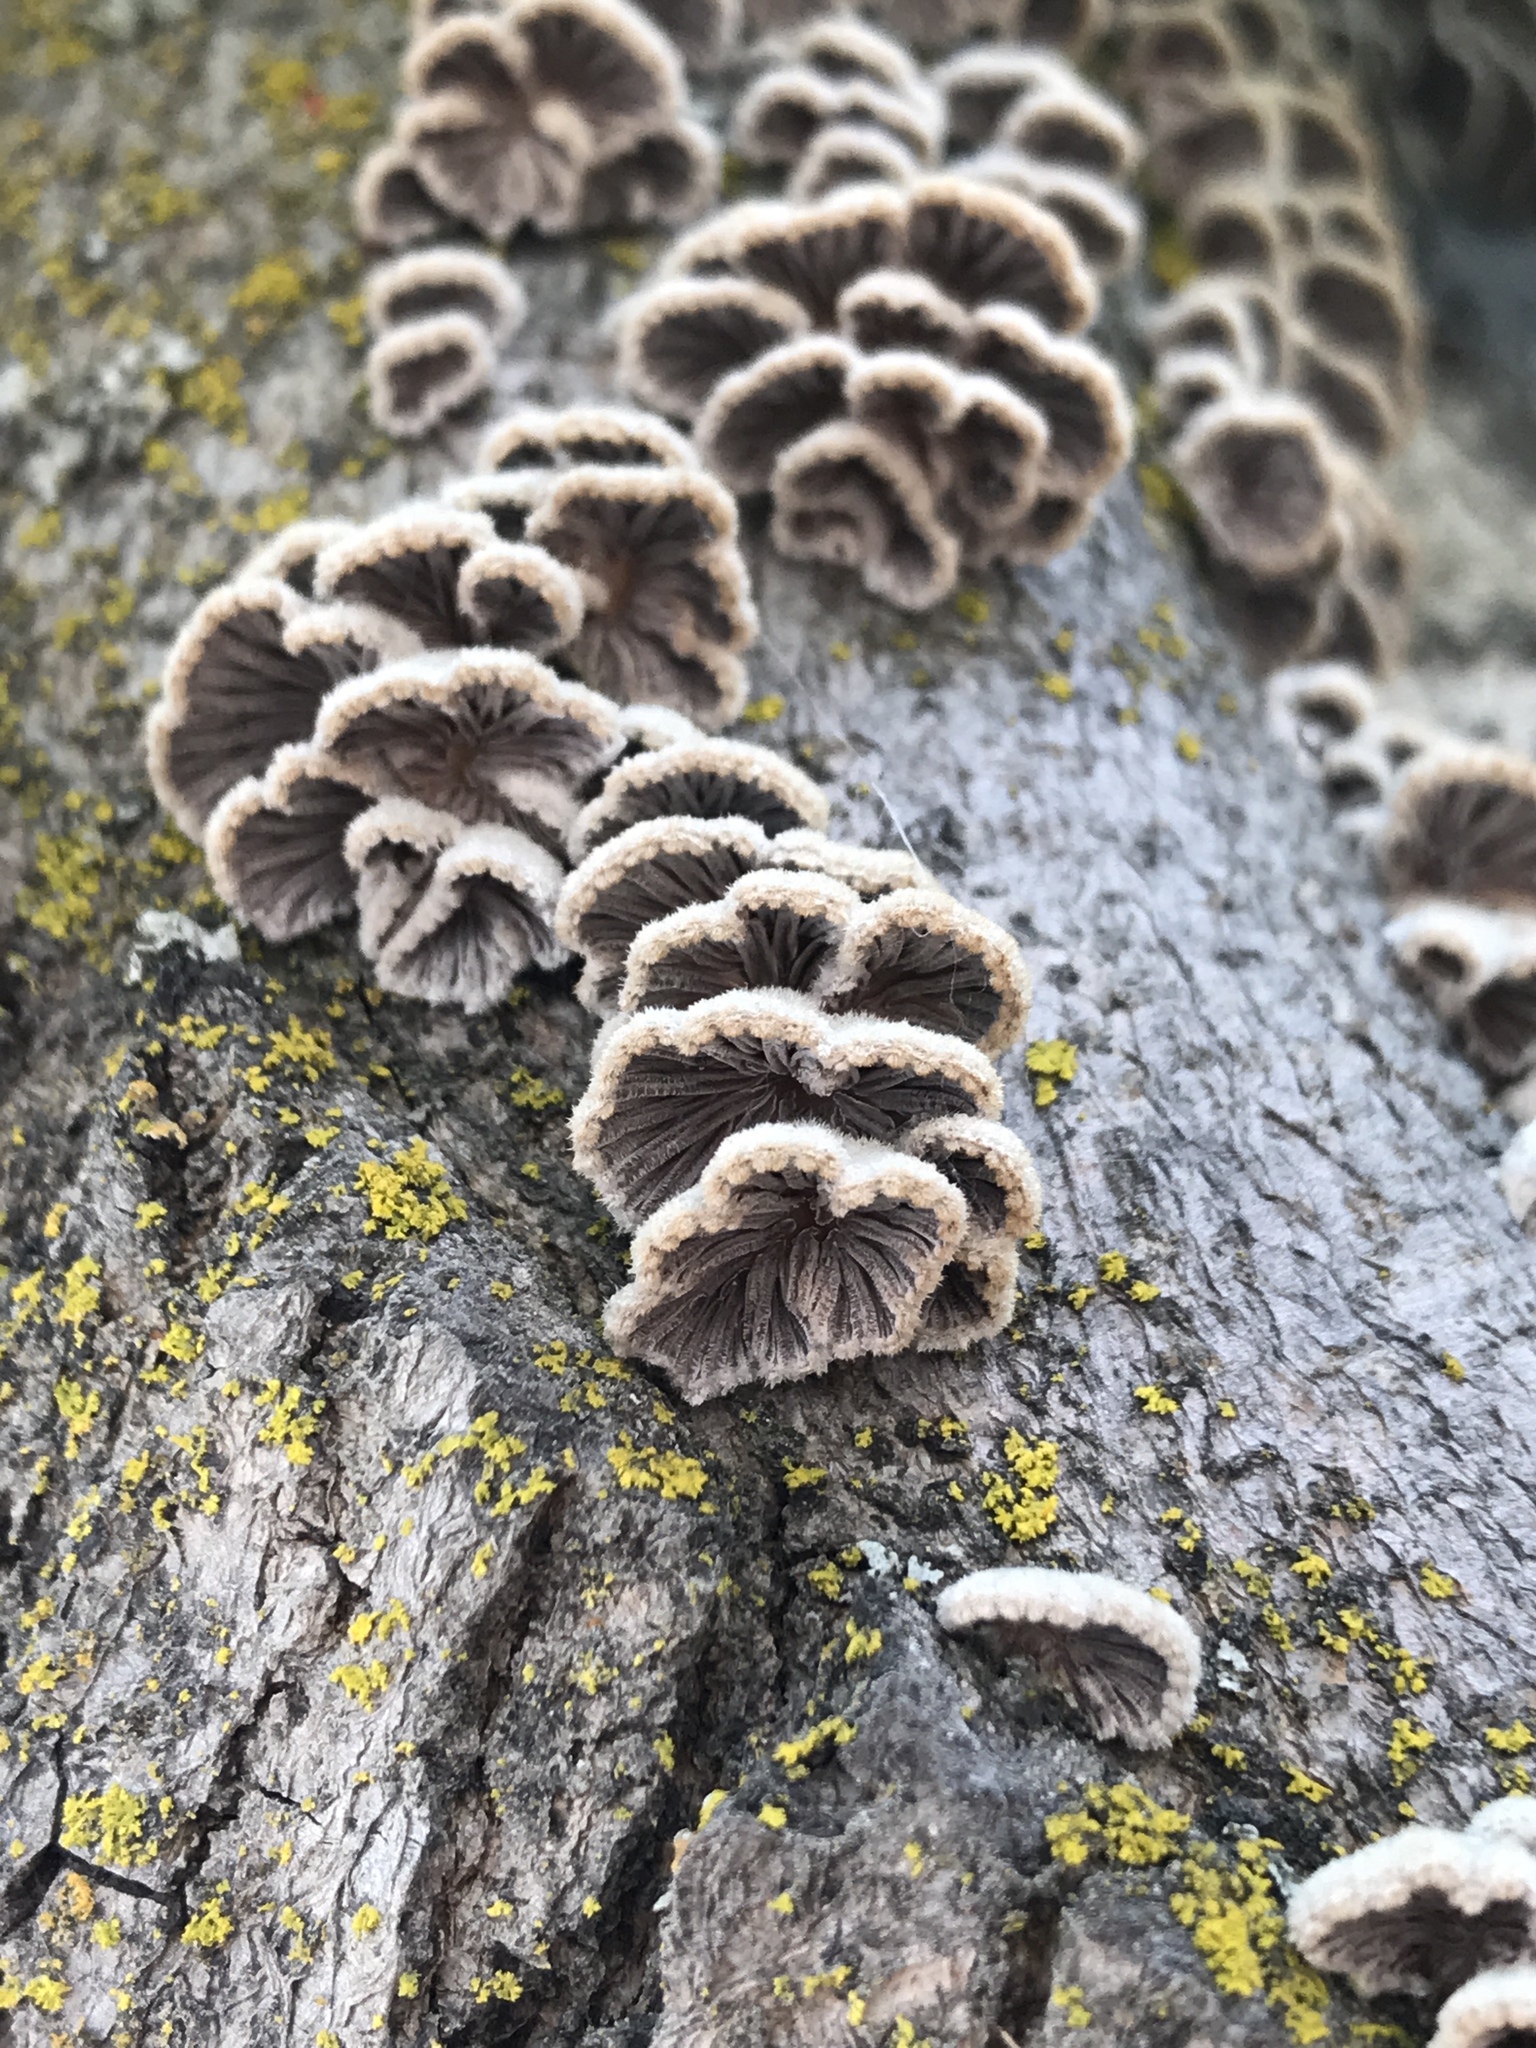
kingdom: Fungi
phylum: Basidiomycota
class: Agaricomycetes
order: Agaricales
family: Schizophyllaceae
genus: Schizophyllum
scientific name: Schizophyllum commune
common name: Common porecrust
